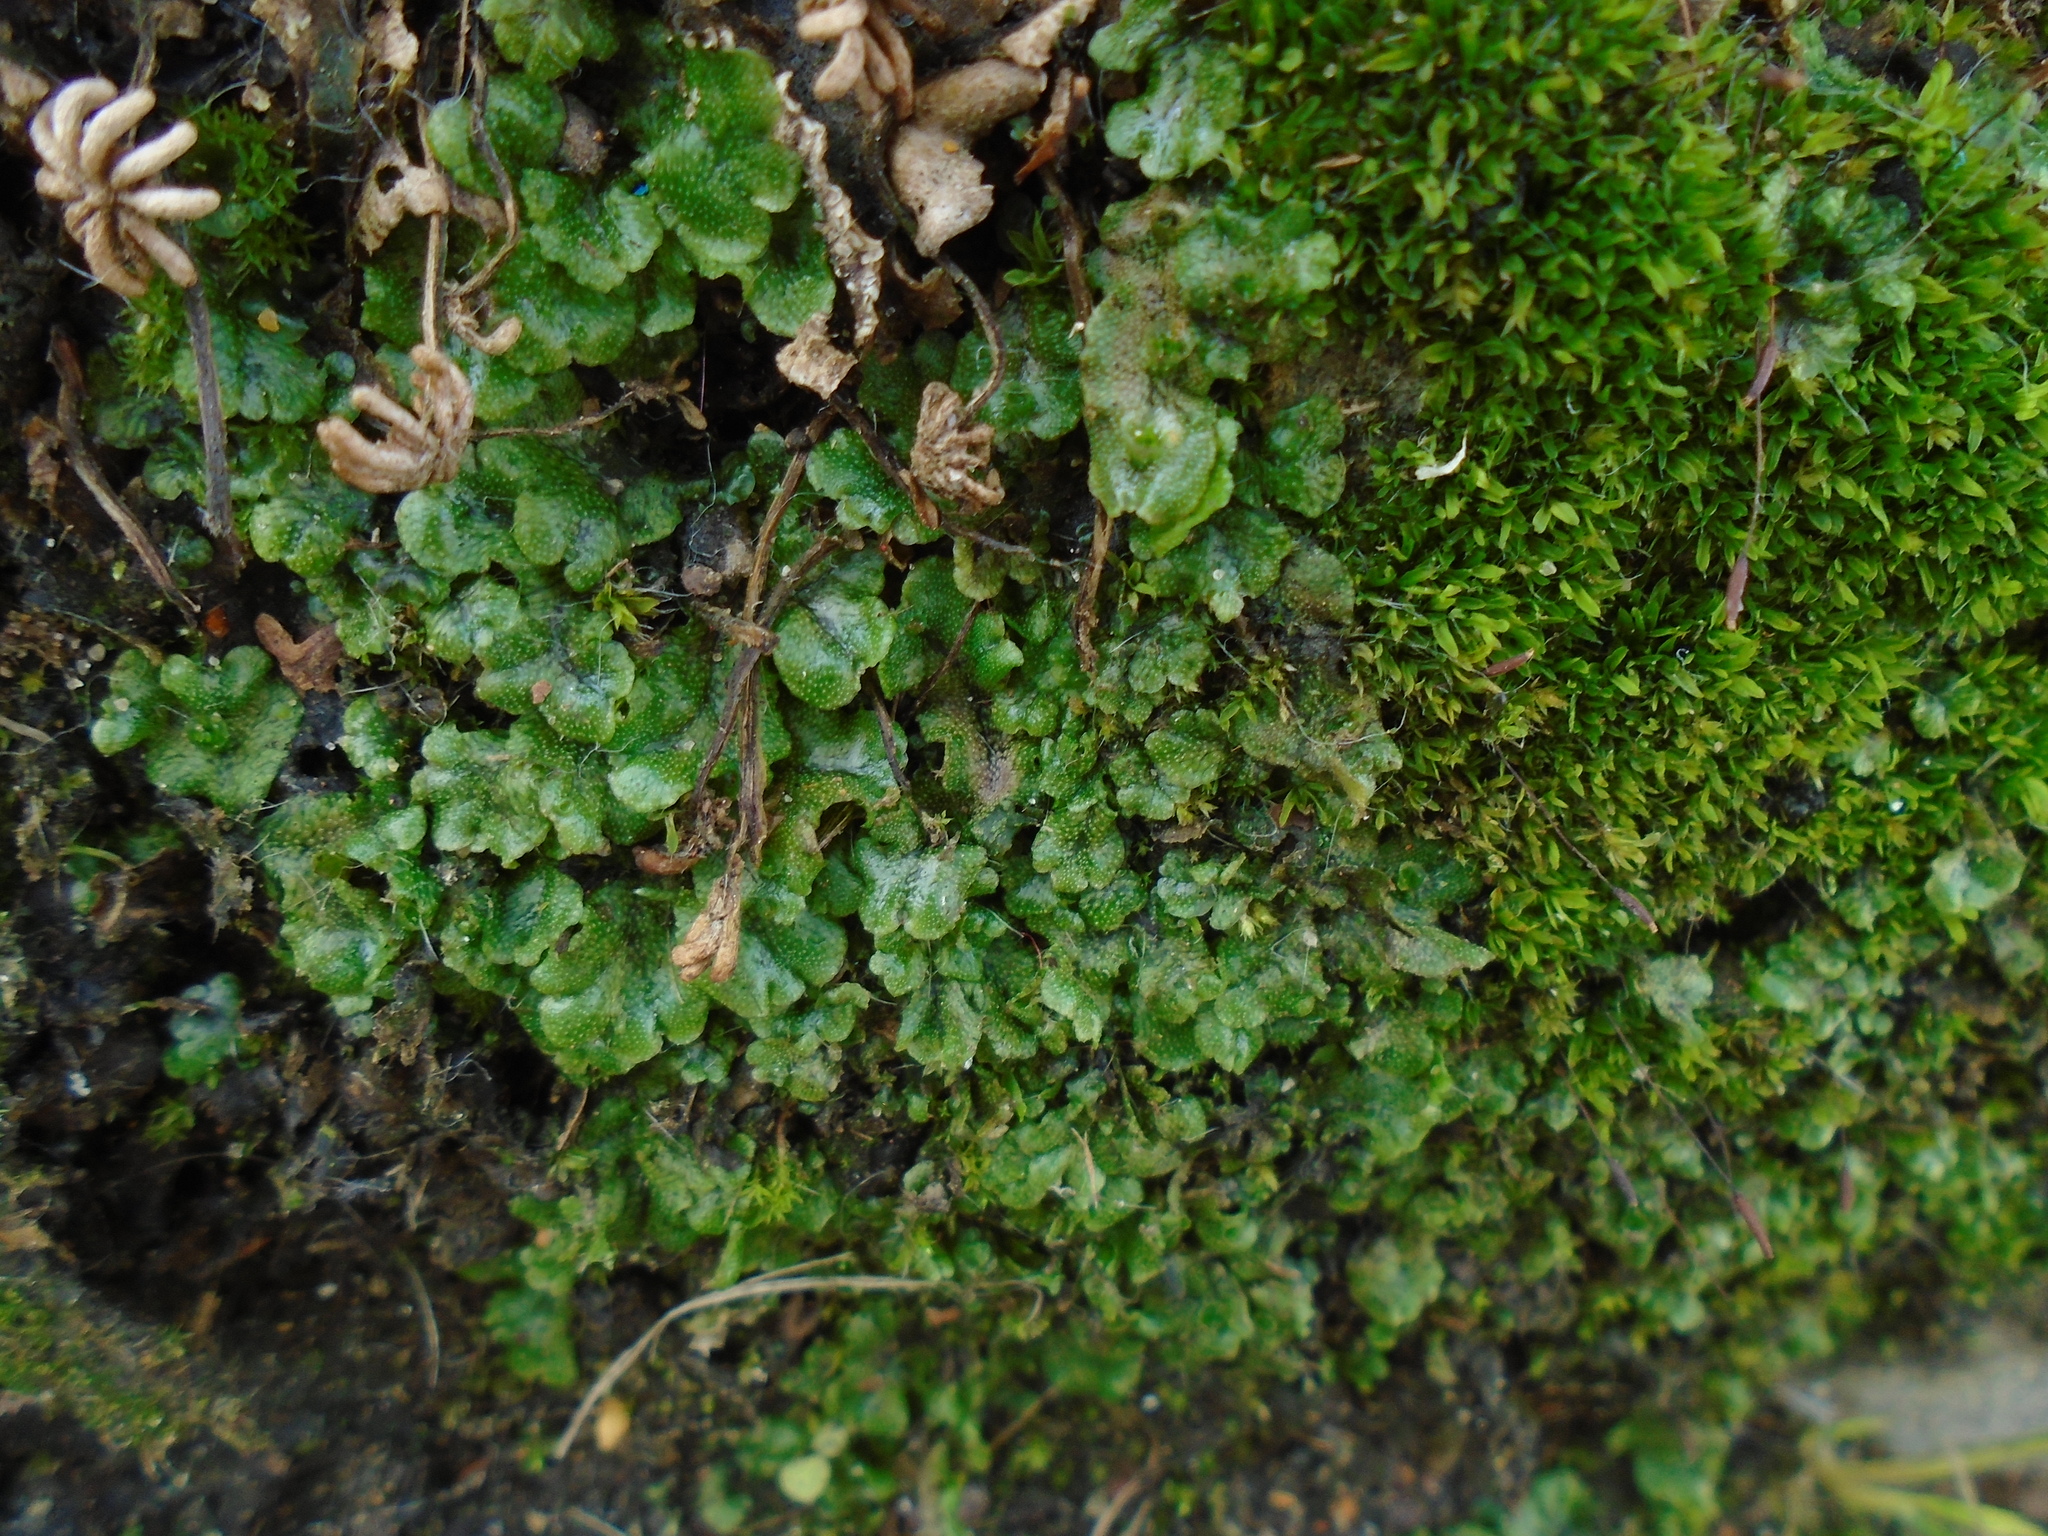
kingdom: Plantae
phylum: Marchantiophyta
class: Marchantiopsida
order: Marchantiales
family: Marchantiaceae
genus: Marchantia
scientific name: Marchantia polymorpha
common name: Common liverwort
